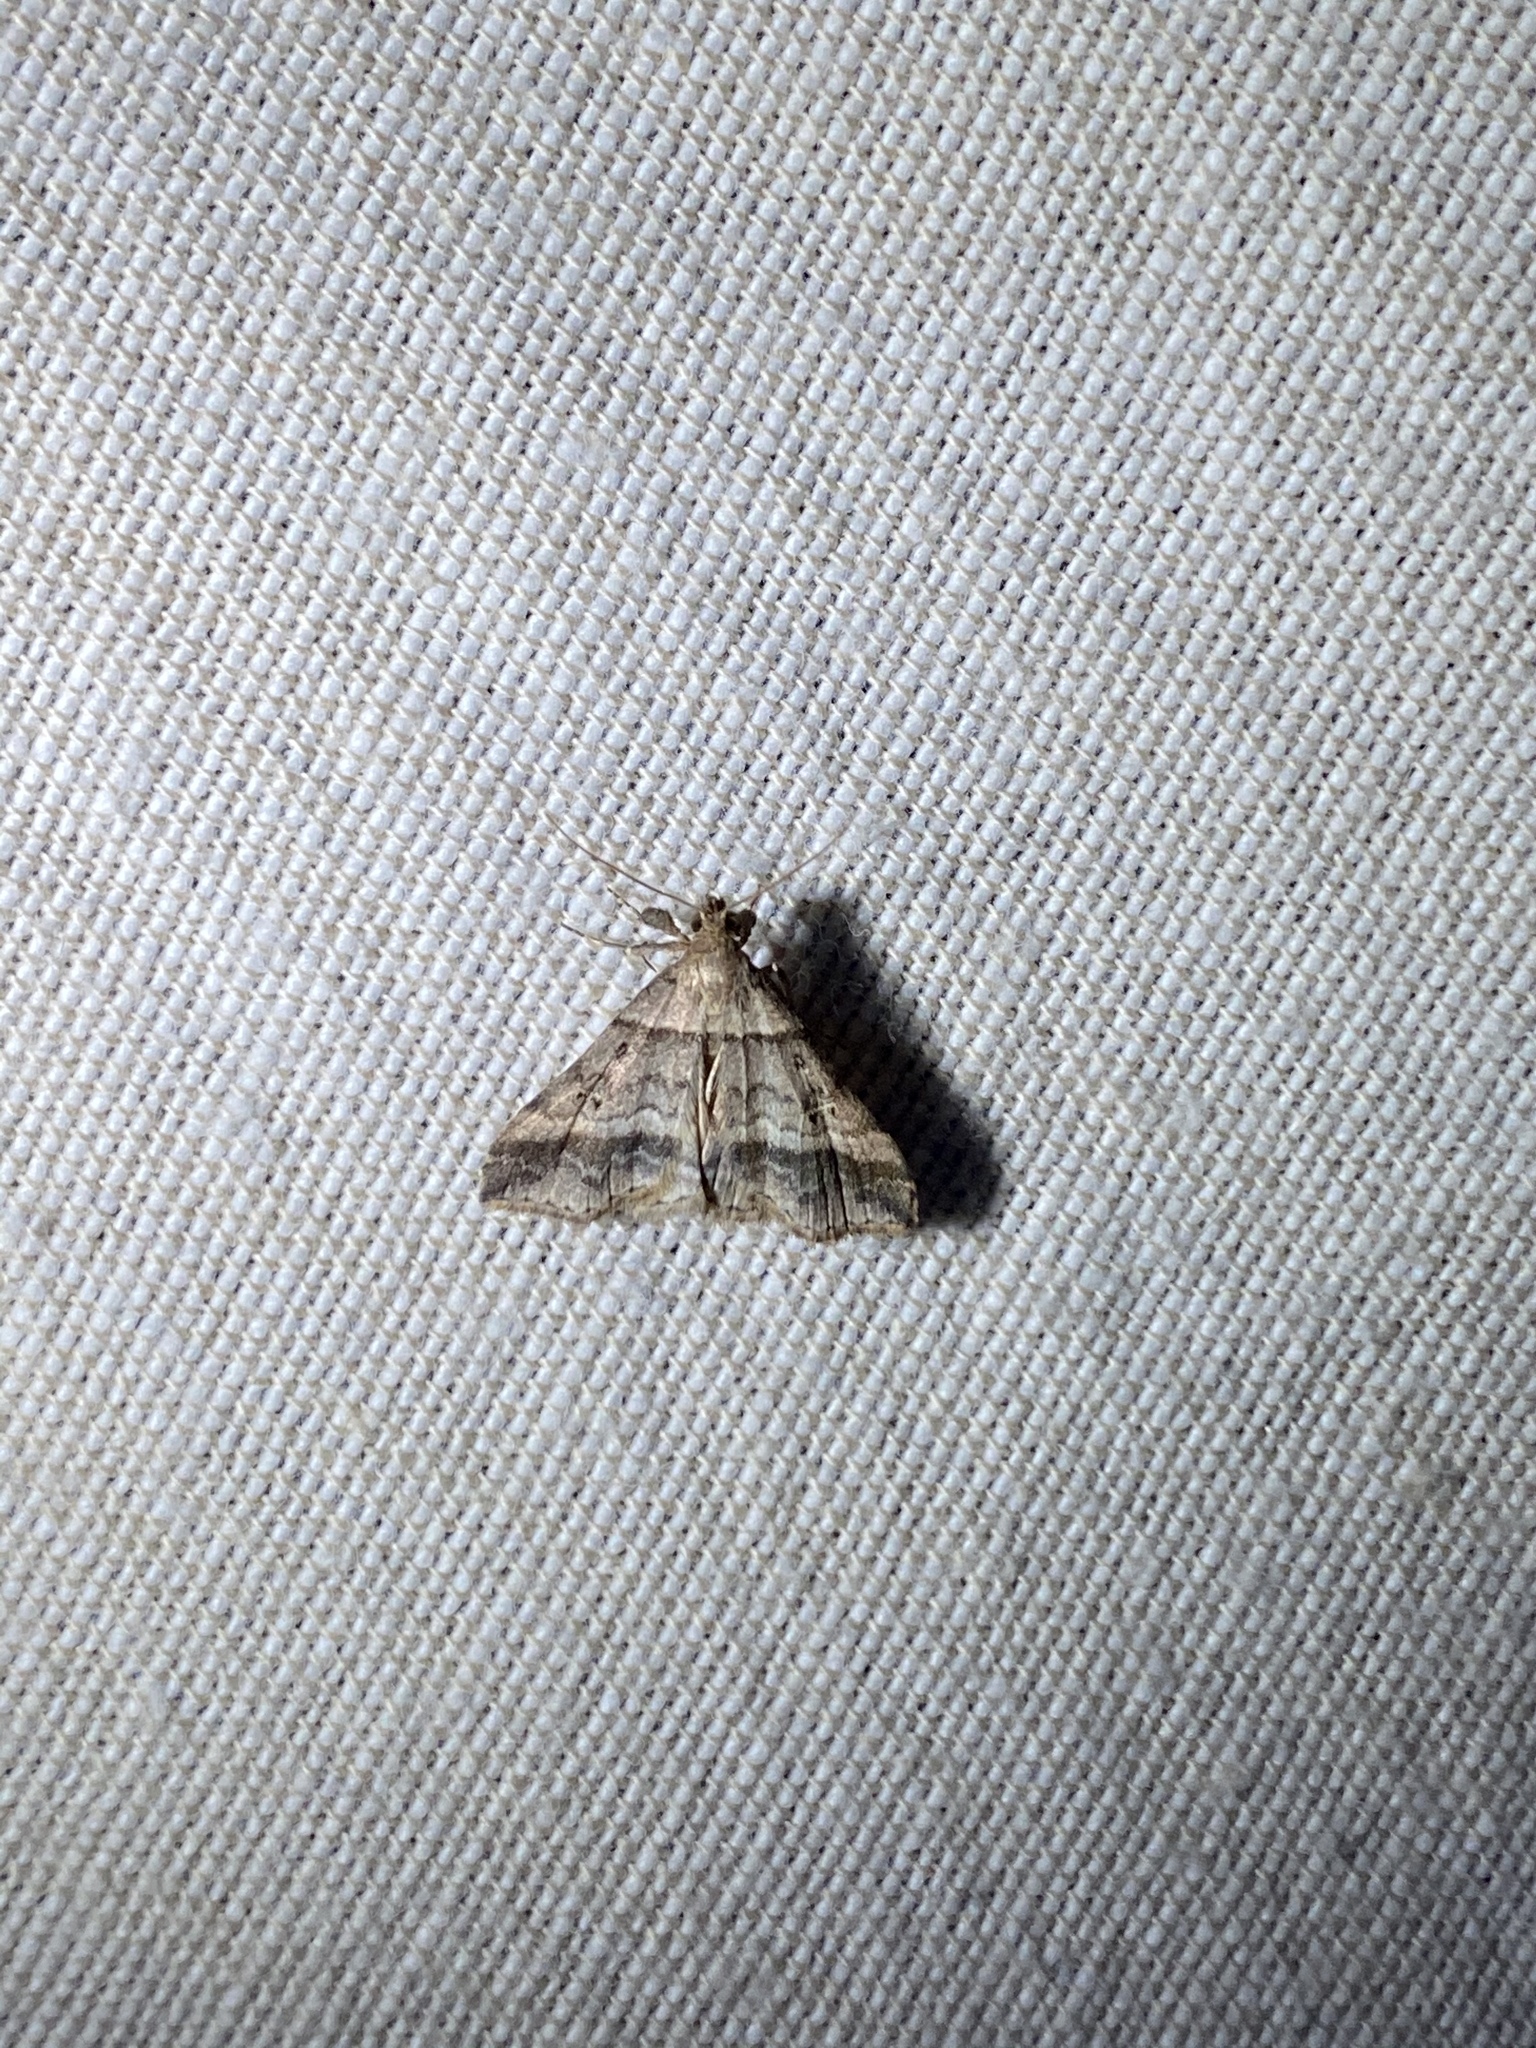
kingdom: Animalia
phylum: Arthropoda
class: Insecta
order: Lepidoptera
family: Erebidae
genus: Phaeolita
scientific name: Phaeolita pyramusalis
